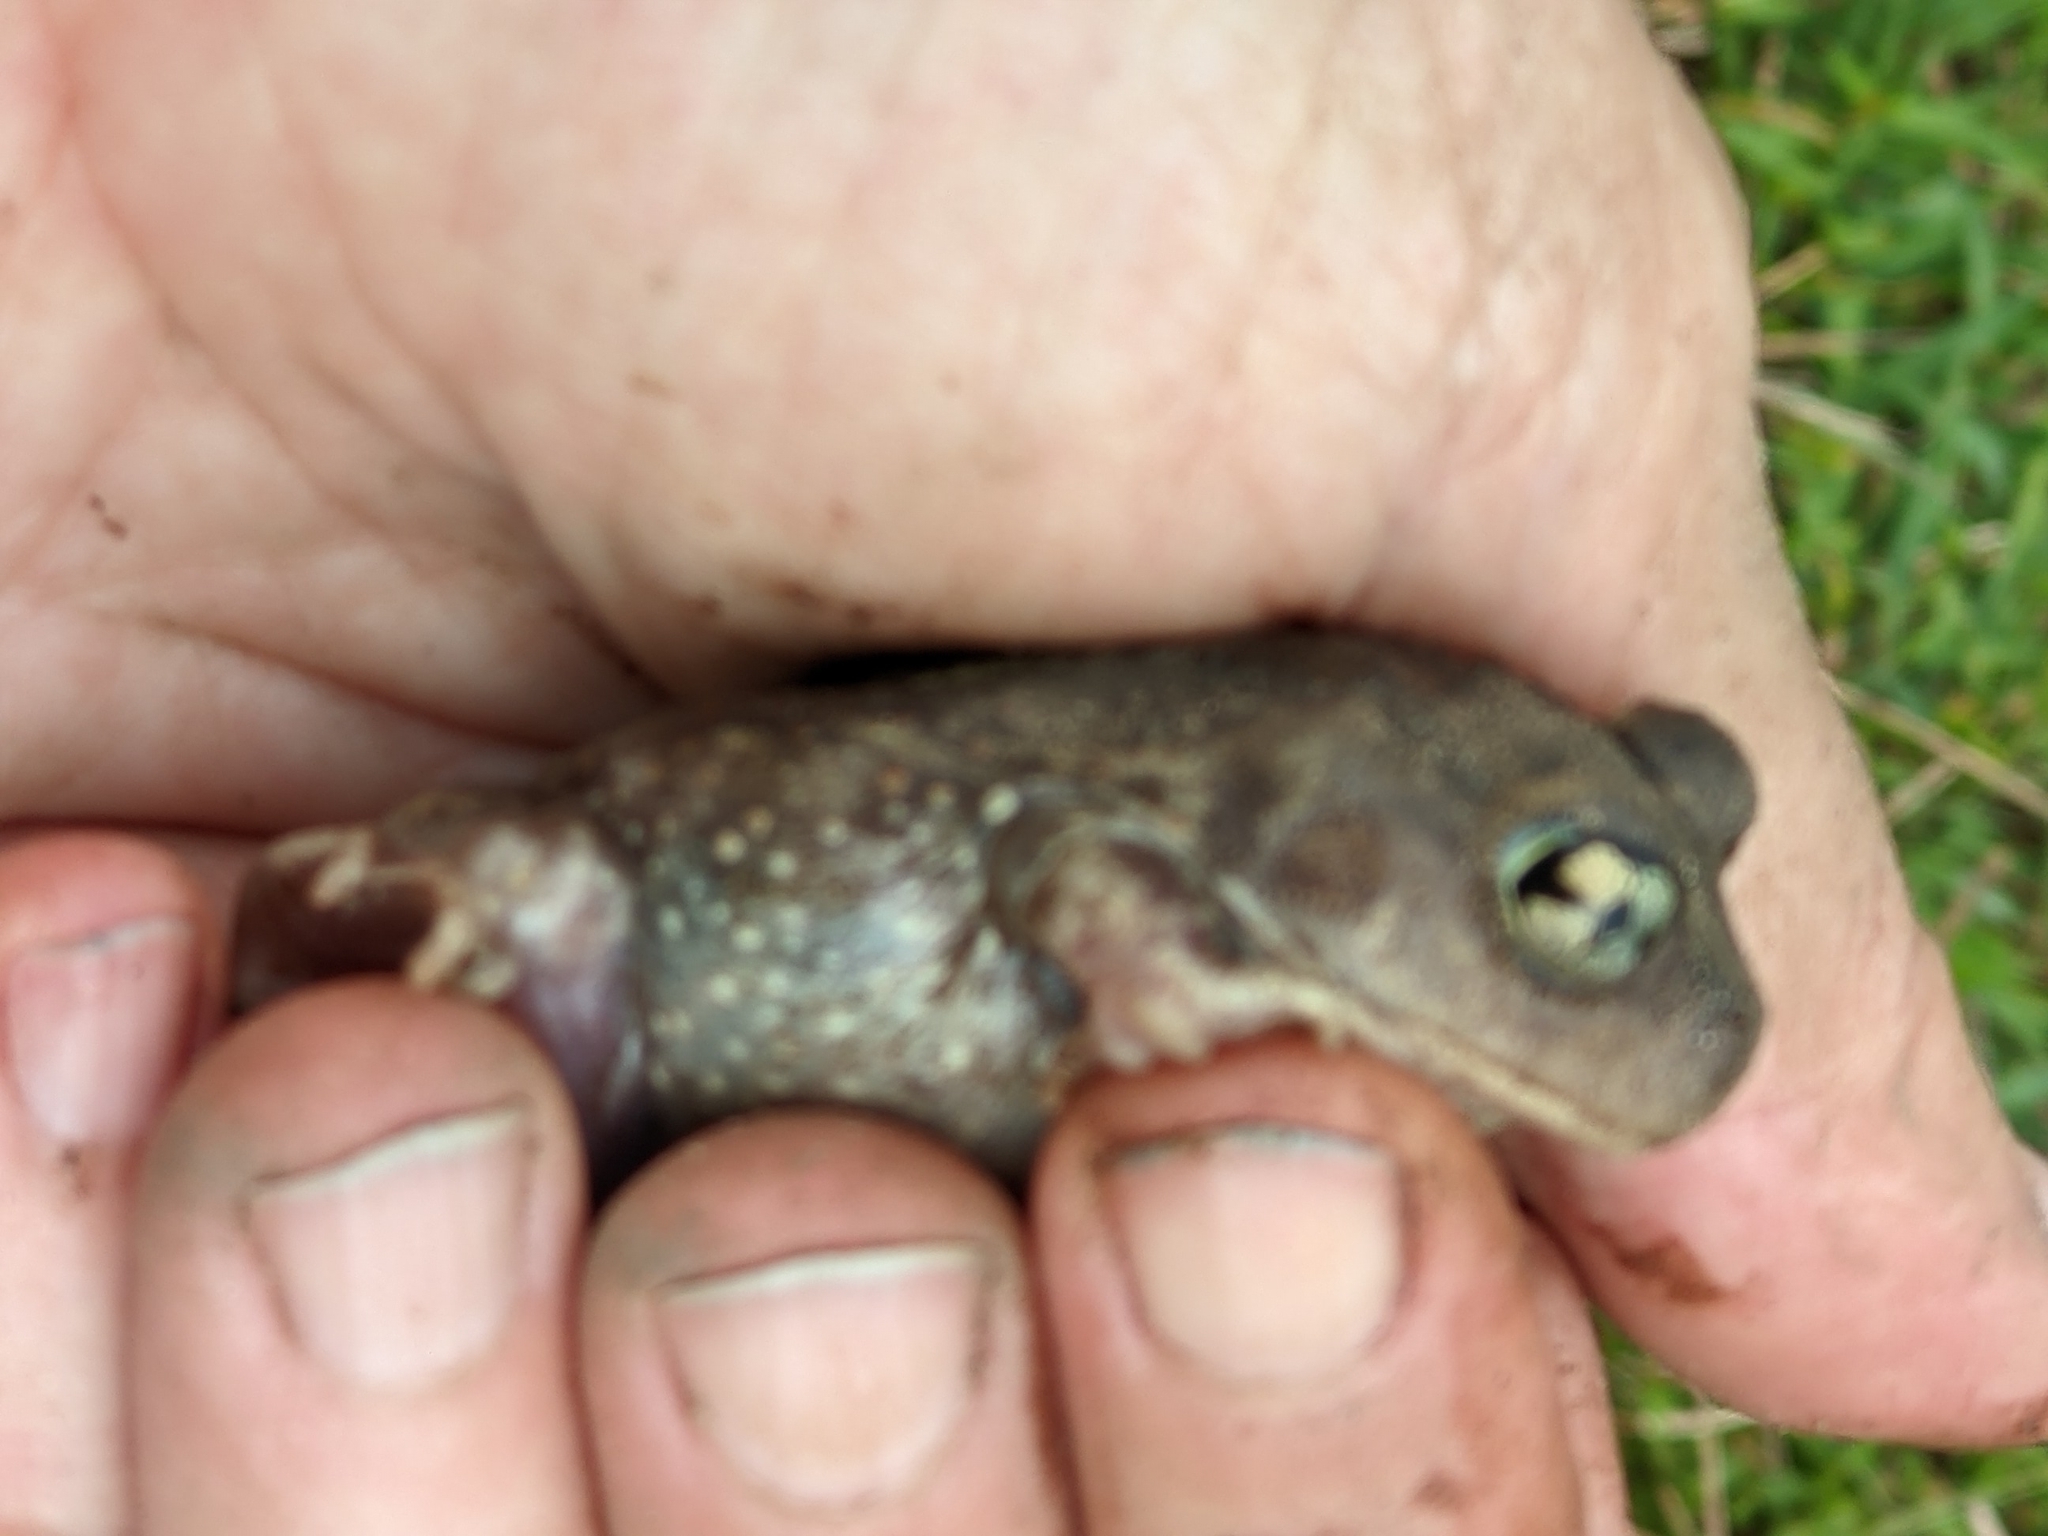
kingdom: Animalia
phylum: Chordata
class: Amphibia
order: Anura
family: Scaphiopodidae
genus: Scaphiopus
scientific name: Scaphiopus holbrookii
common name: Eastern spadefoot toad
